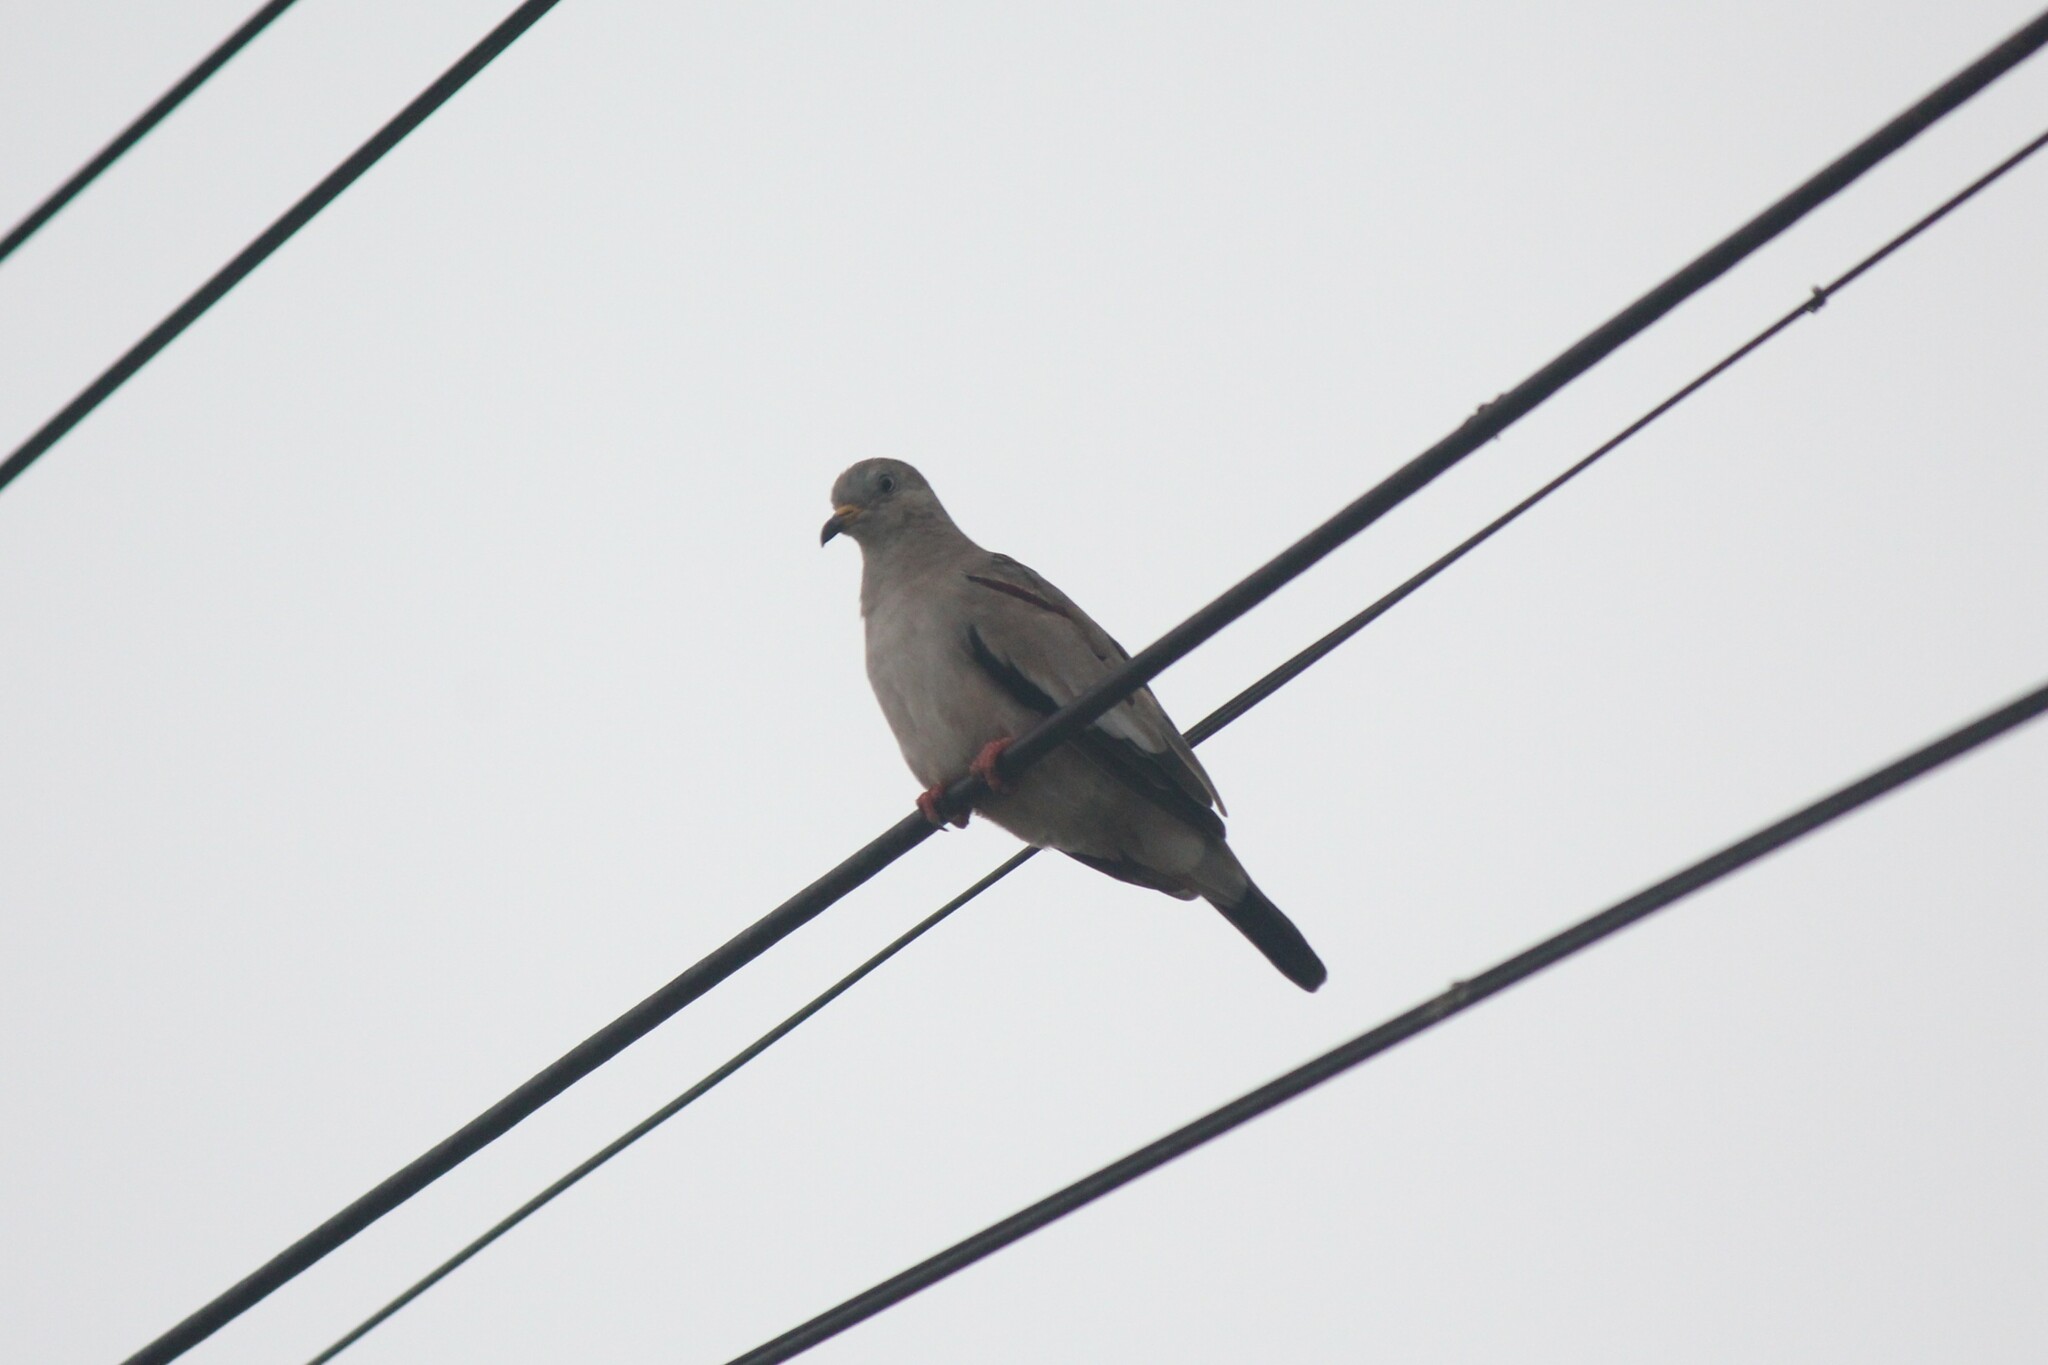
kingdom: Animalia
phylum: Chordata
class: Aves
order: Columbiformes
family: Columbidae
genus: Columbina
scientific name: Columbina cruziana
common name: Croaking ground dove
